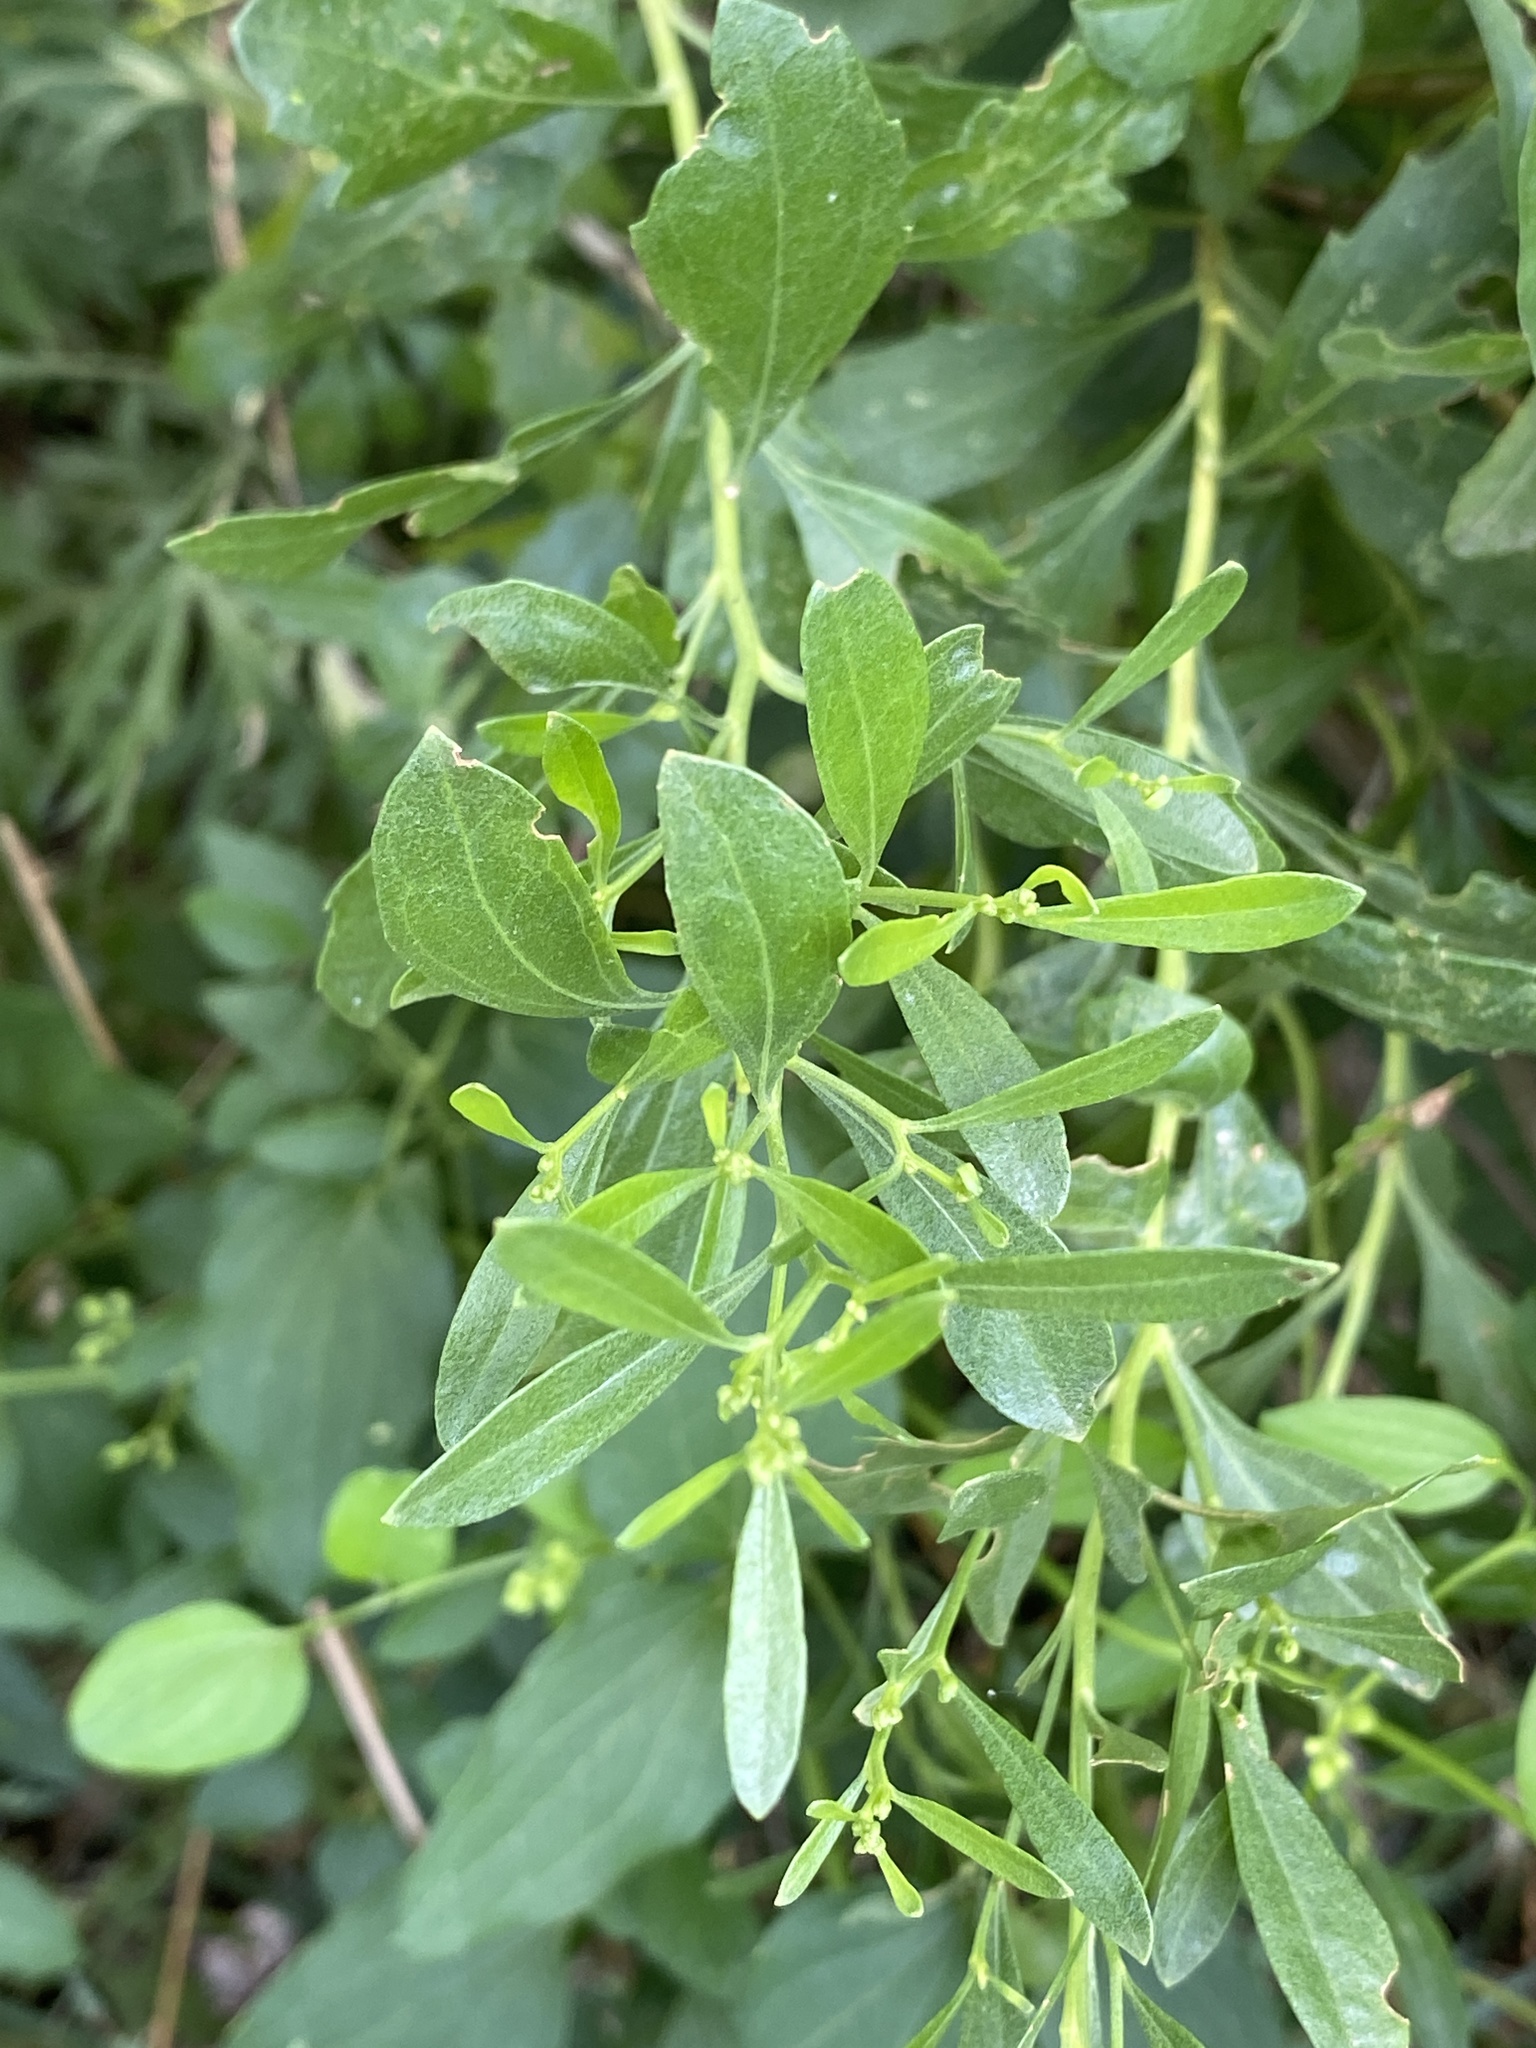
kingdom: Plantae
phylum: Tracheophyta
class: Magnoliopsida
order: Asterales
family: Asteraceae
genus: Baccharis
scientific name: Baccharis halimifolia
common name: Eastern baccharis
